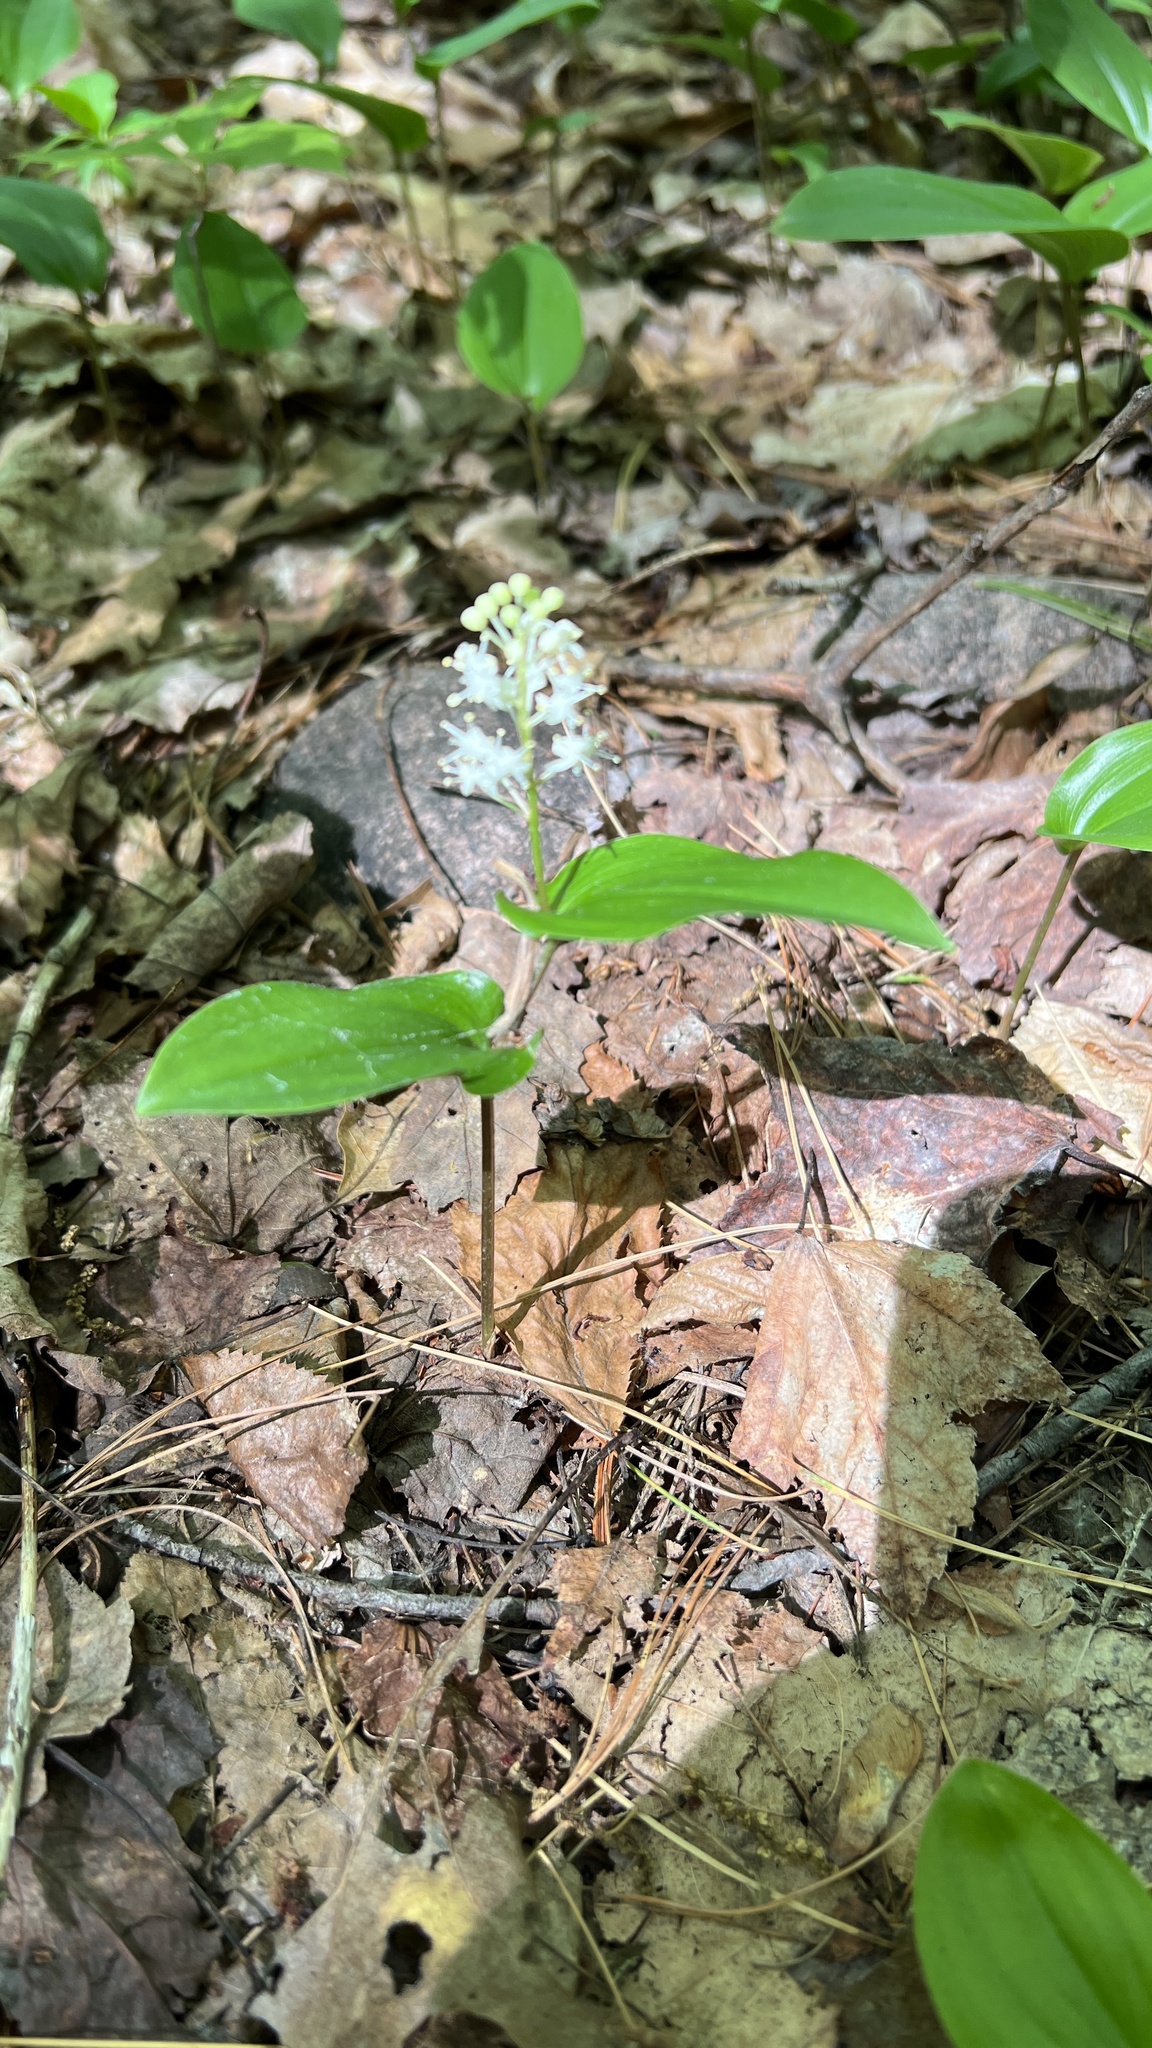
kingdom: Plantae
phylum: Tracheophyta
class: Liliopsida
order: Asparagales
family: Asparagaceae
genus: Maianthemum
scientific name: Maianthemum canadense
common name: False lily-of-the-valley
